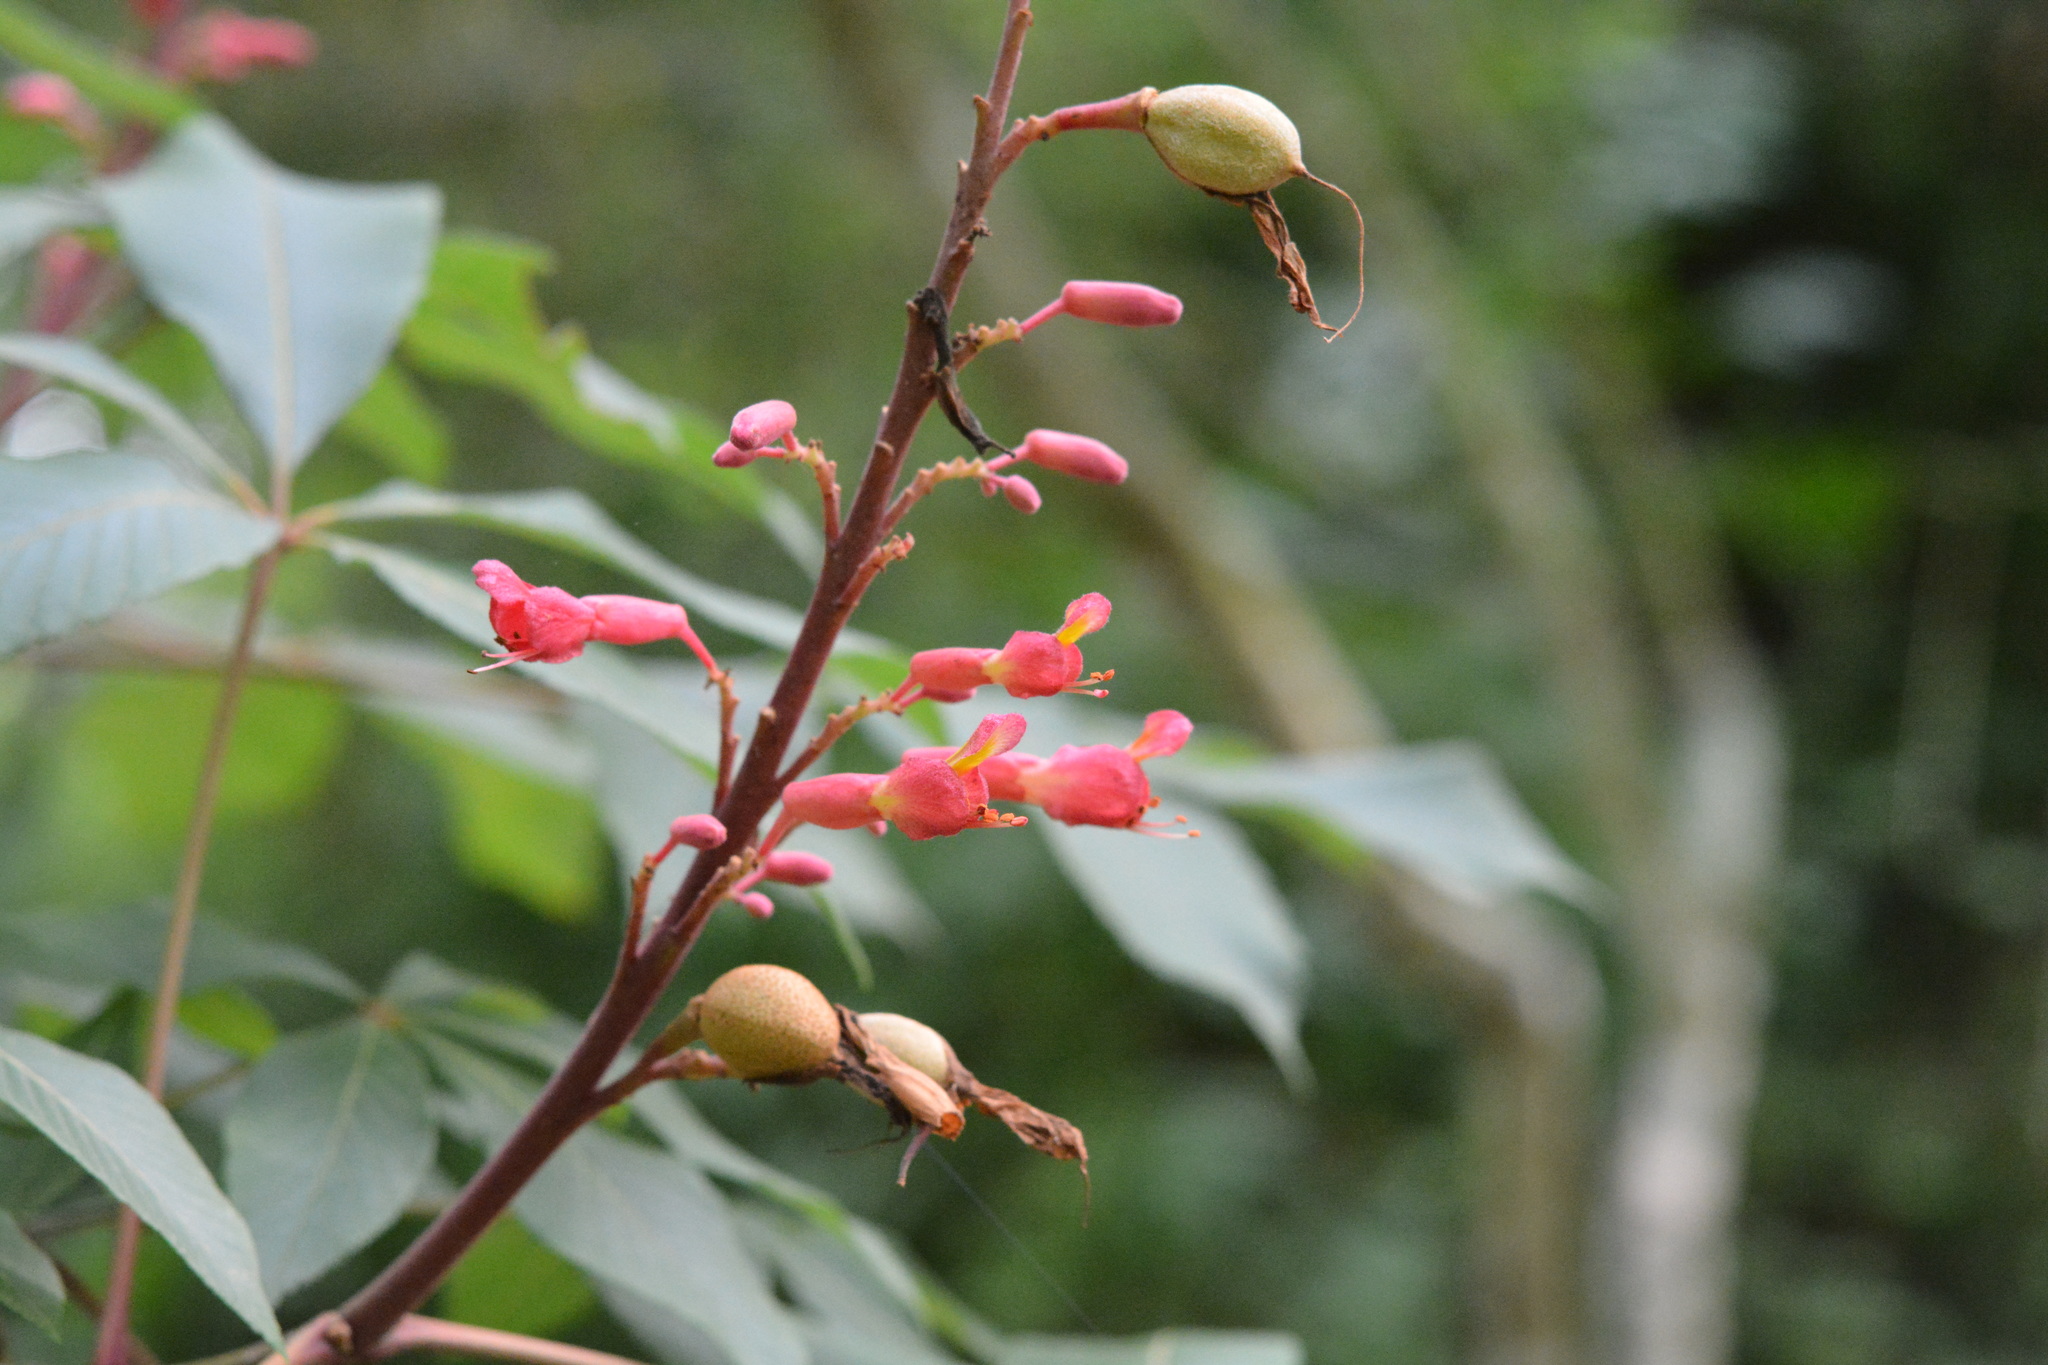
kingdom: Plantae
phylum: Tracheophyta
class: Magnoliopsida
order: Sapindales
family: Sapindaceae
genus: Aesculus
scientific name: Aesculus pavia
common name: Red buckeye
